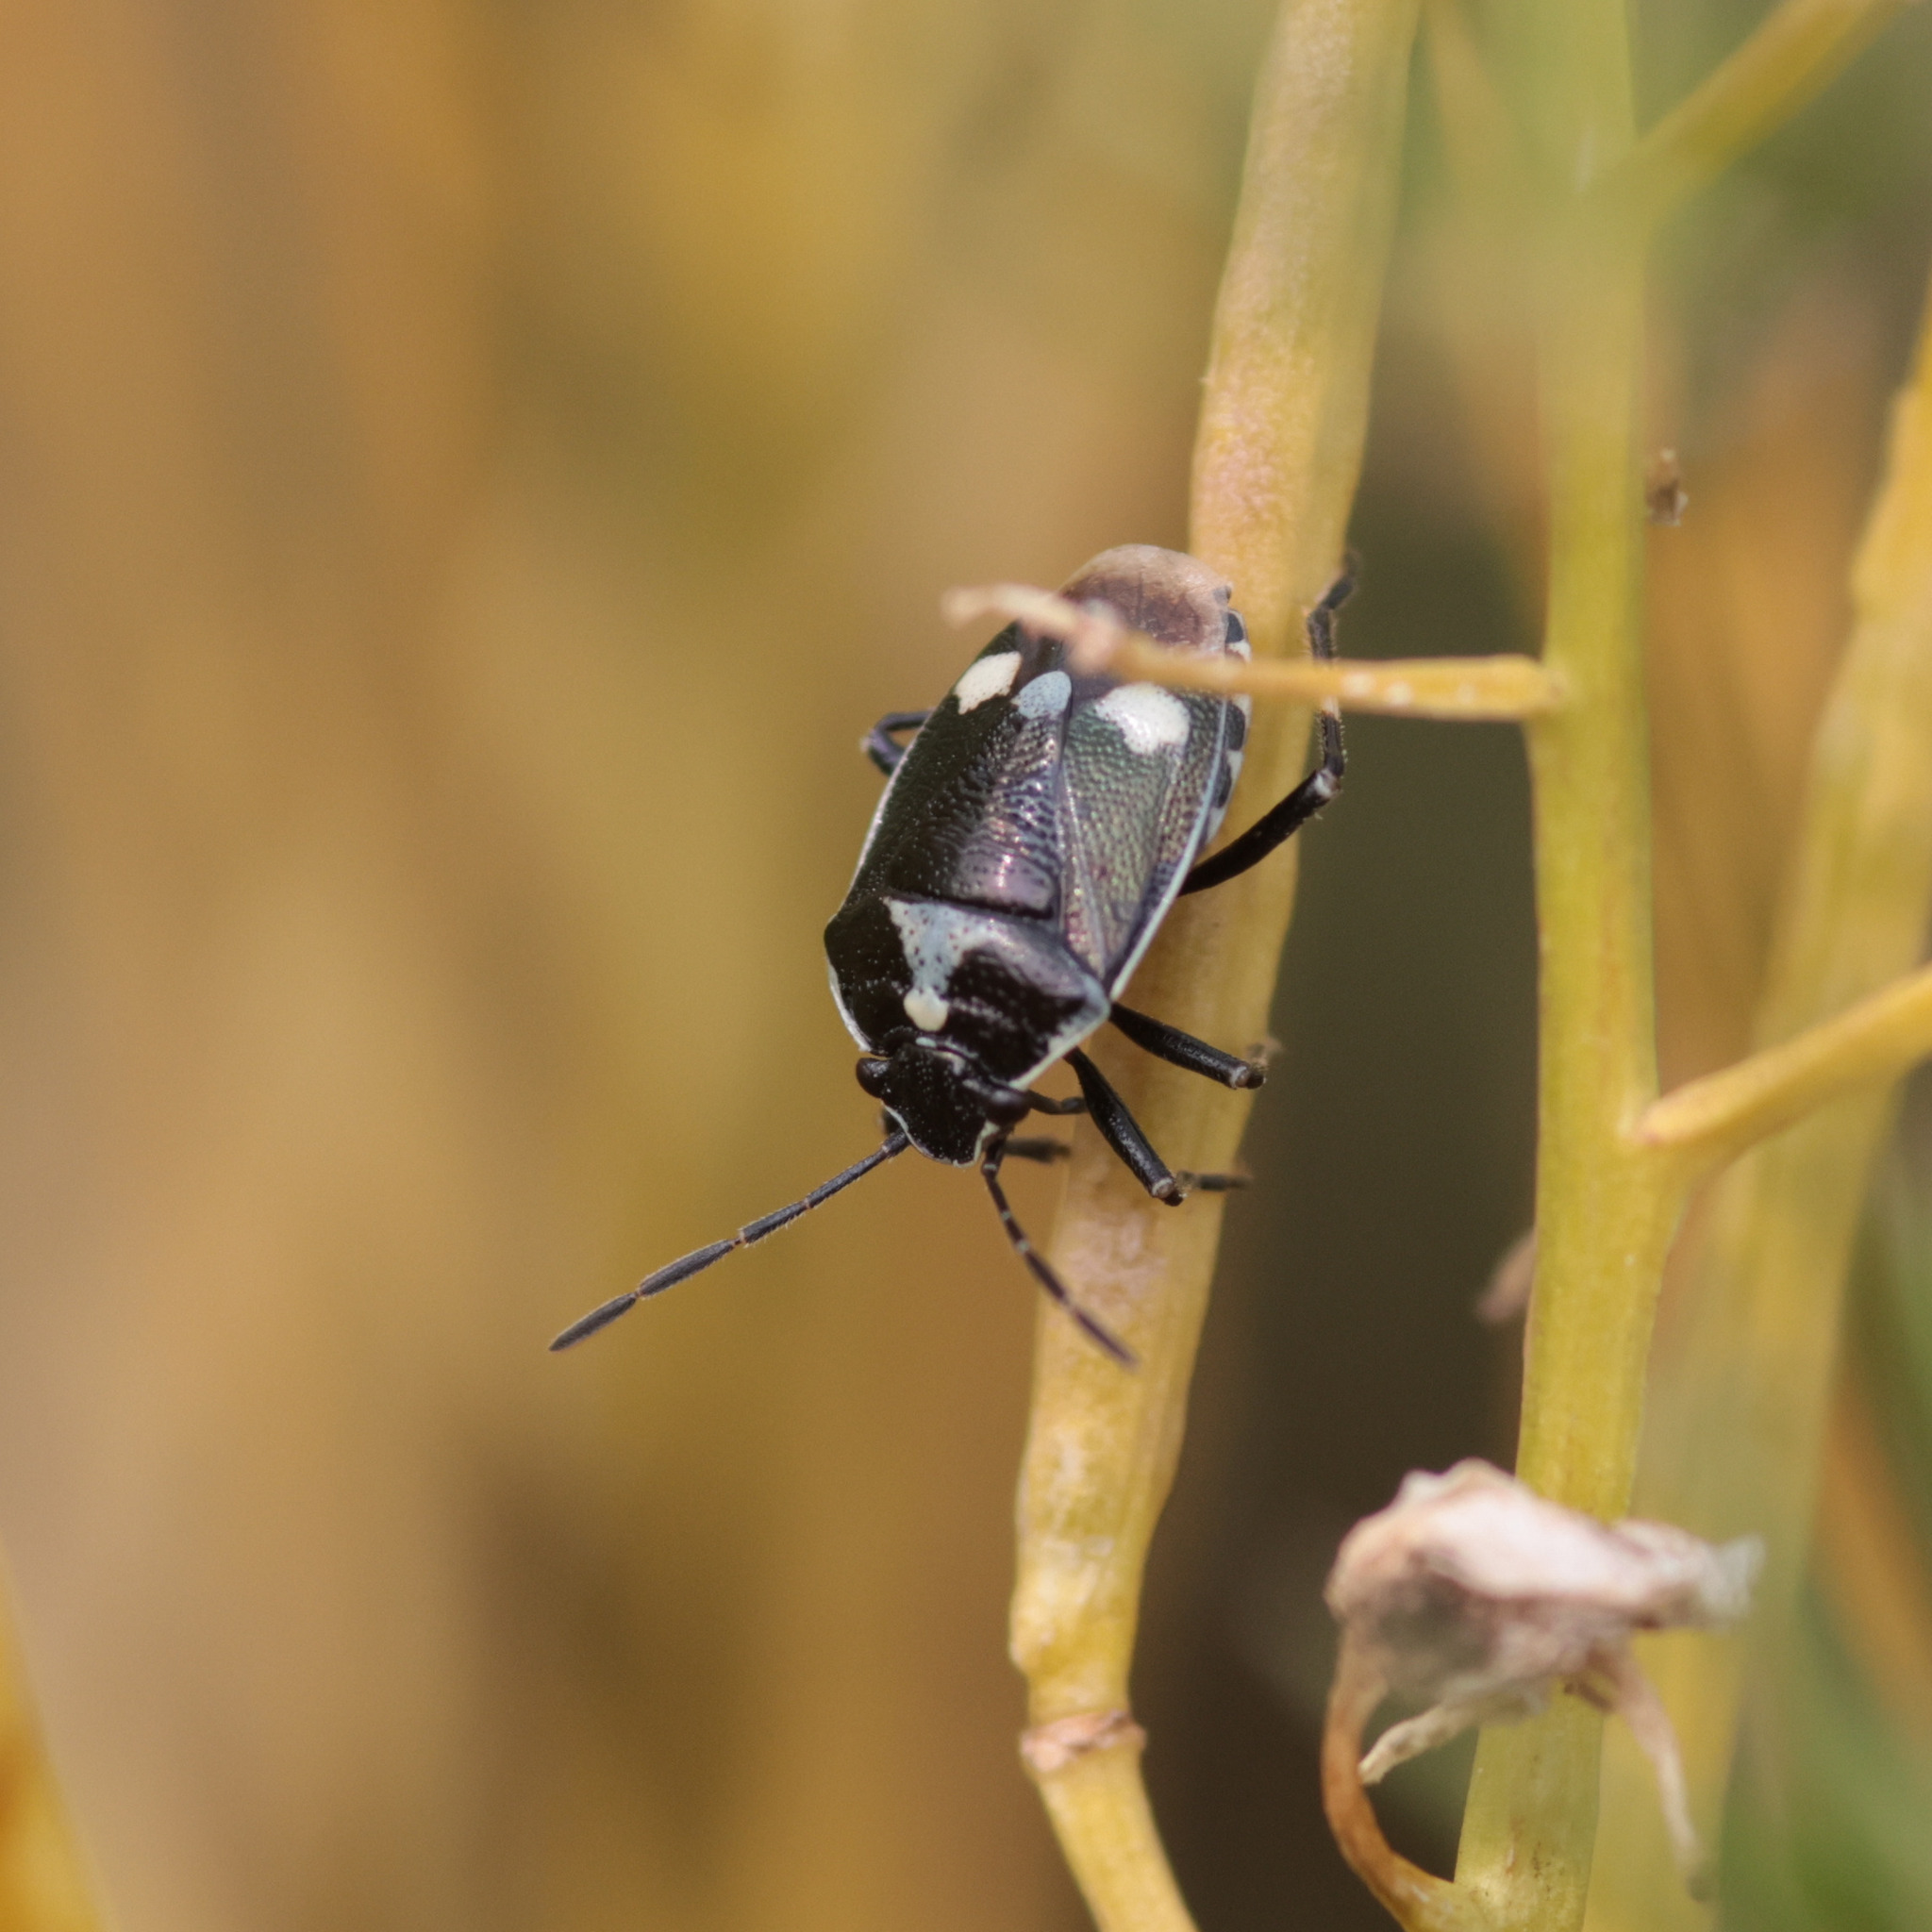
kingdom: Animalia
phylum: Arthropoda
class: Insecta
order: Hemiptera
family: Pentatomidae
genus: Eurydema
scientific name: Eurydema oleracea
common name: Cabbage bug
